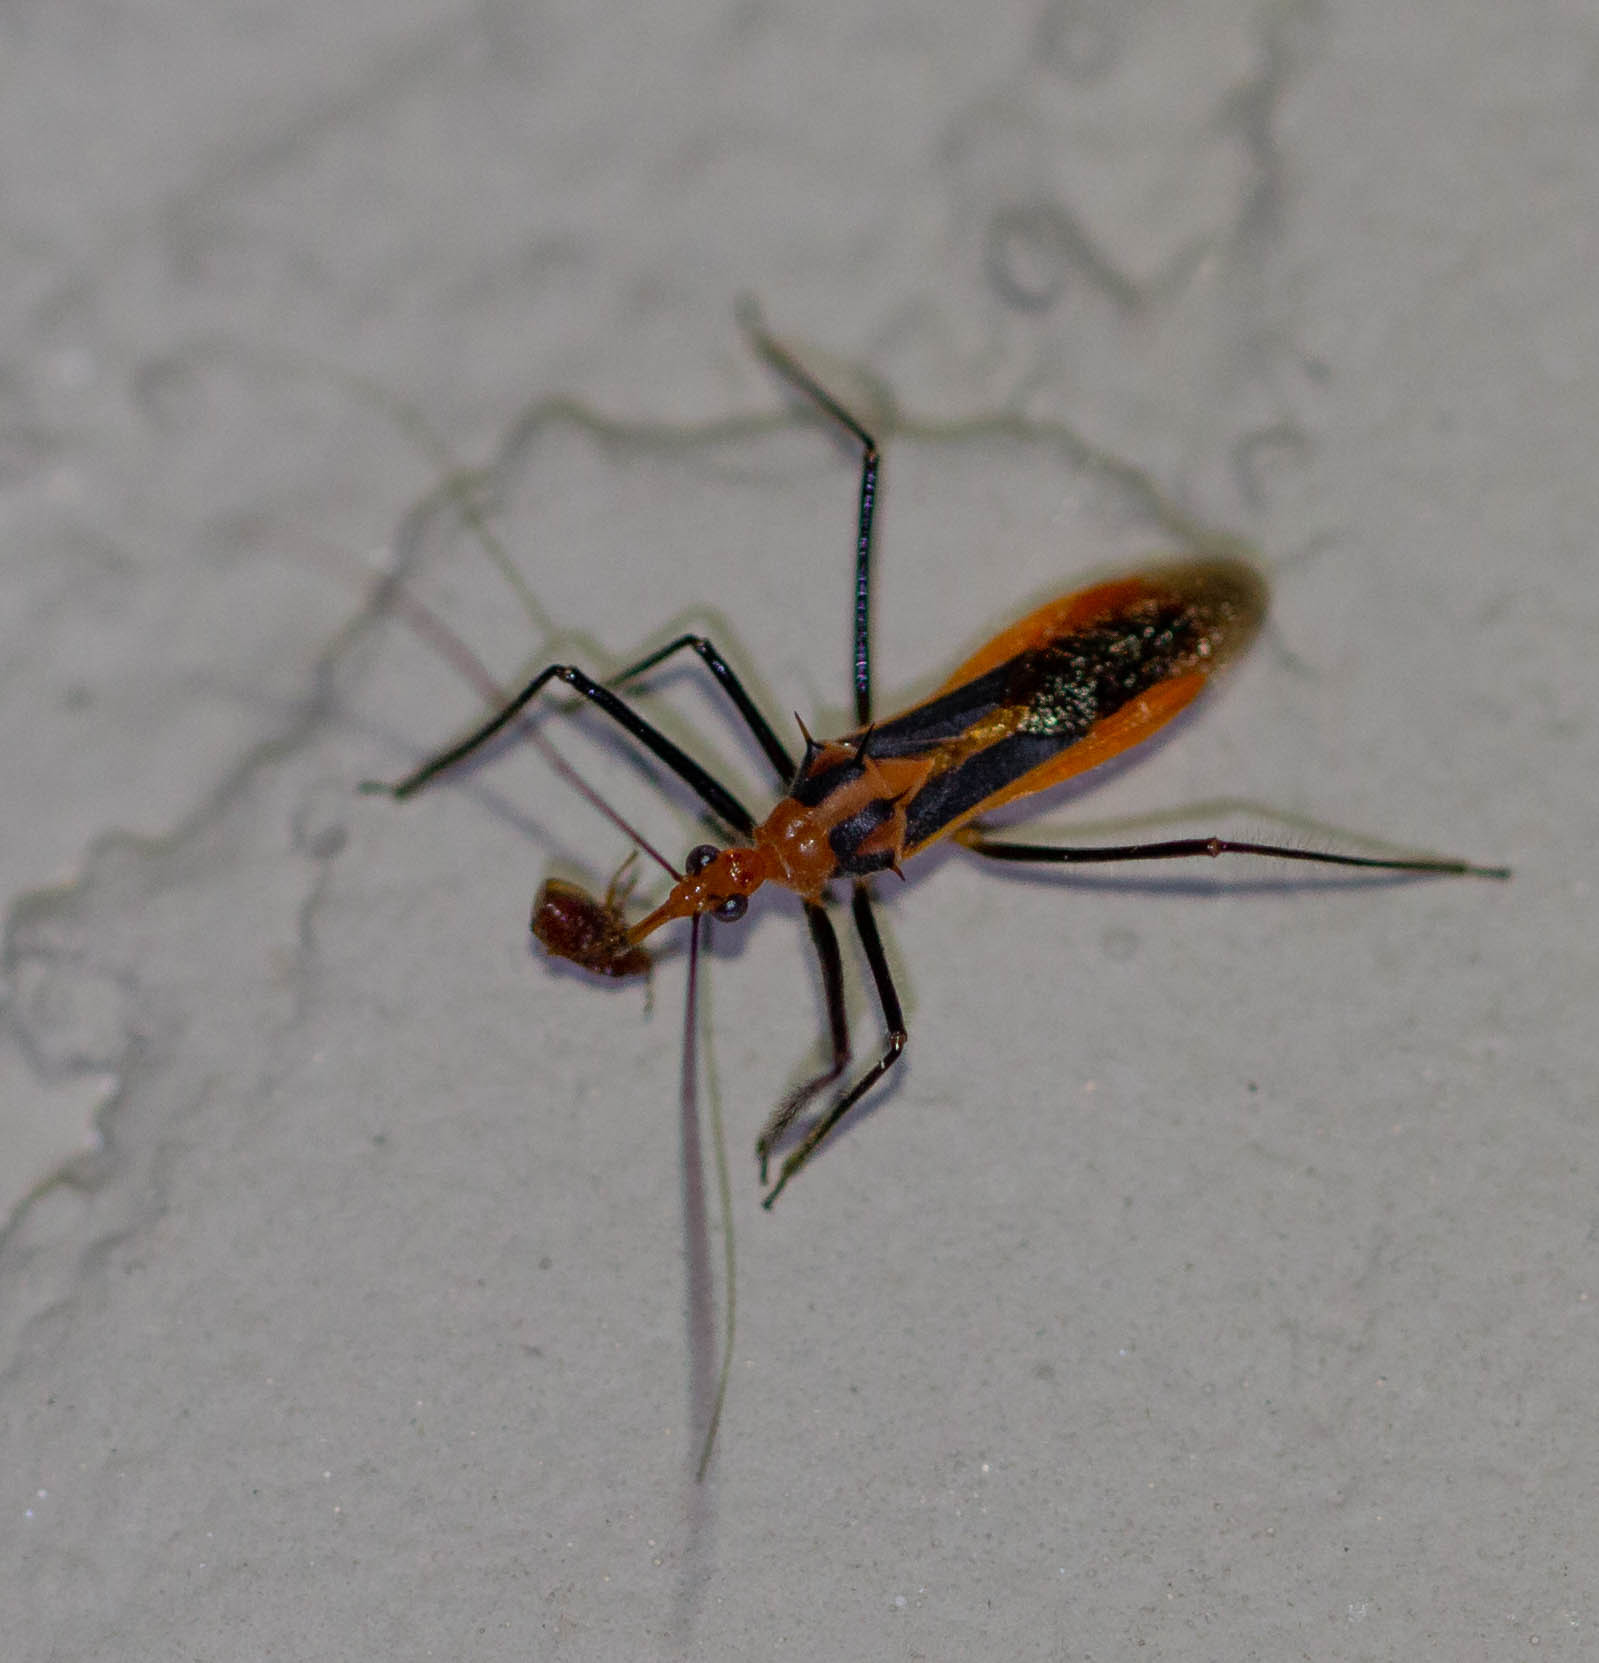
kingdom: Animalia
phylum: Arthropoda
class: Insecta
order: Hemiptera
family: Reduviidae
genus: Repipta
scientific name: Repipta taurus
